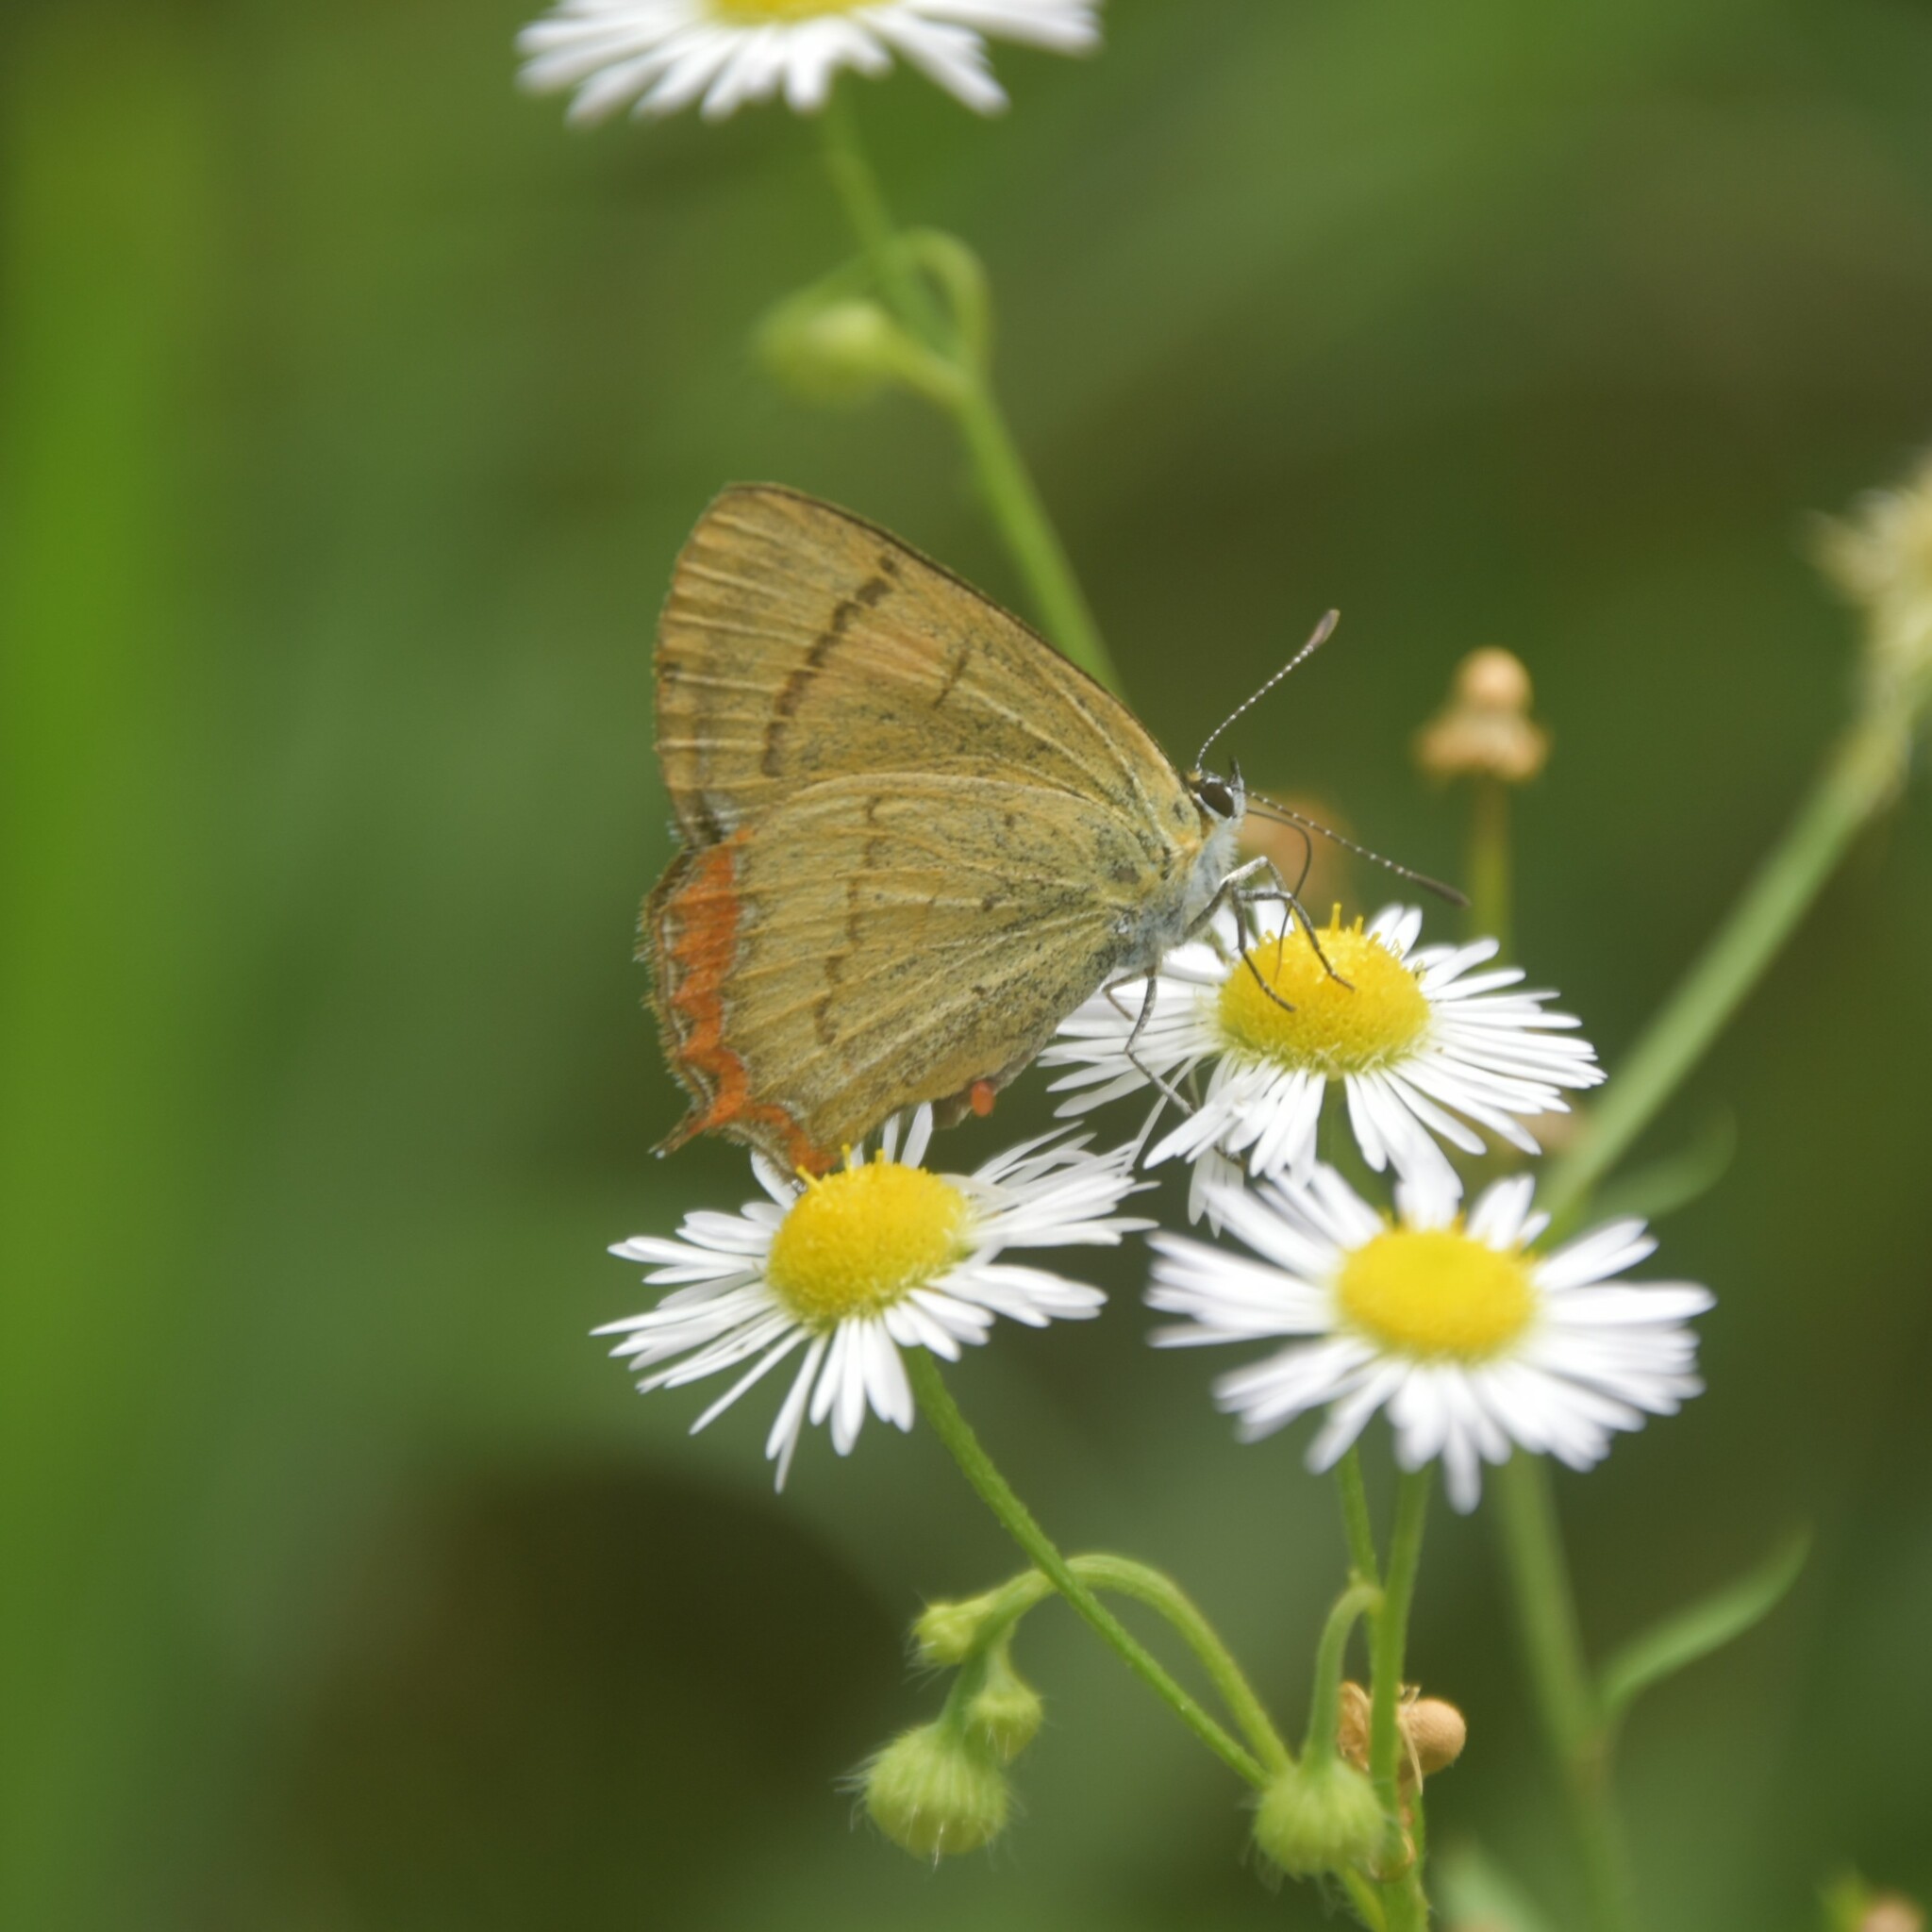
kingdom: Animalia
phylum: Arthropoda
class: Insecta
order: Lepidoptera
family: Lycaenidae
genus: Heliophorus
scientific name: Heliophorus
